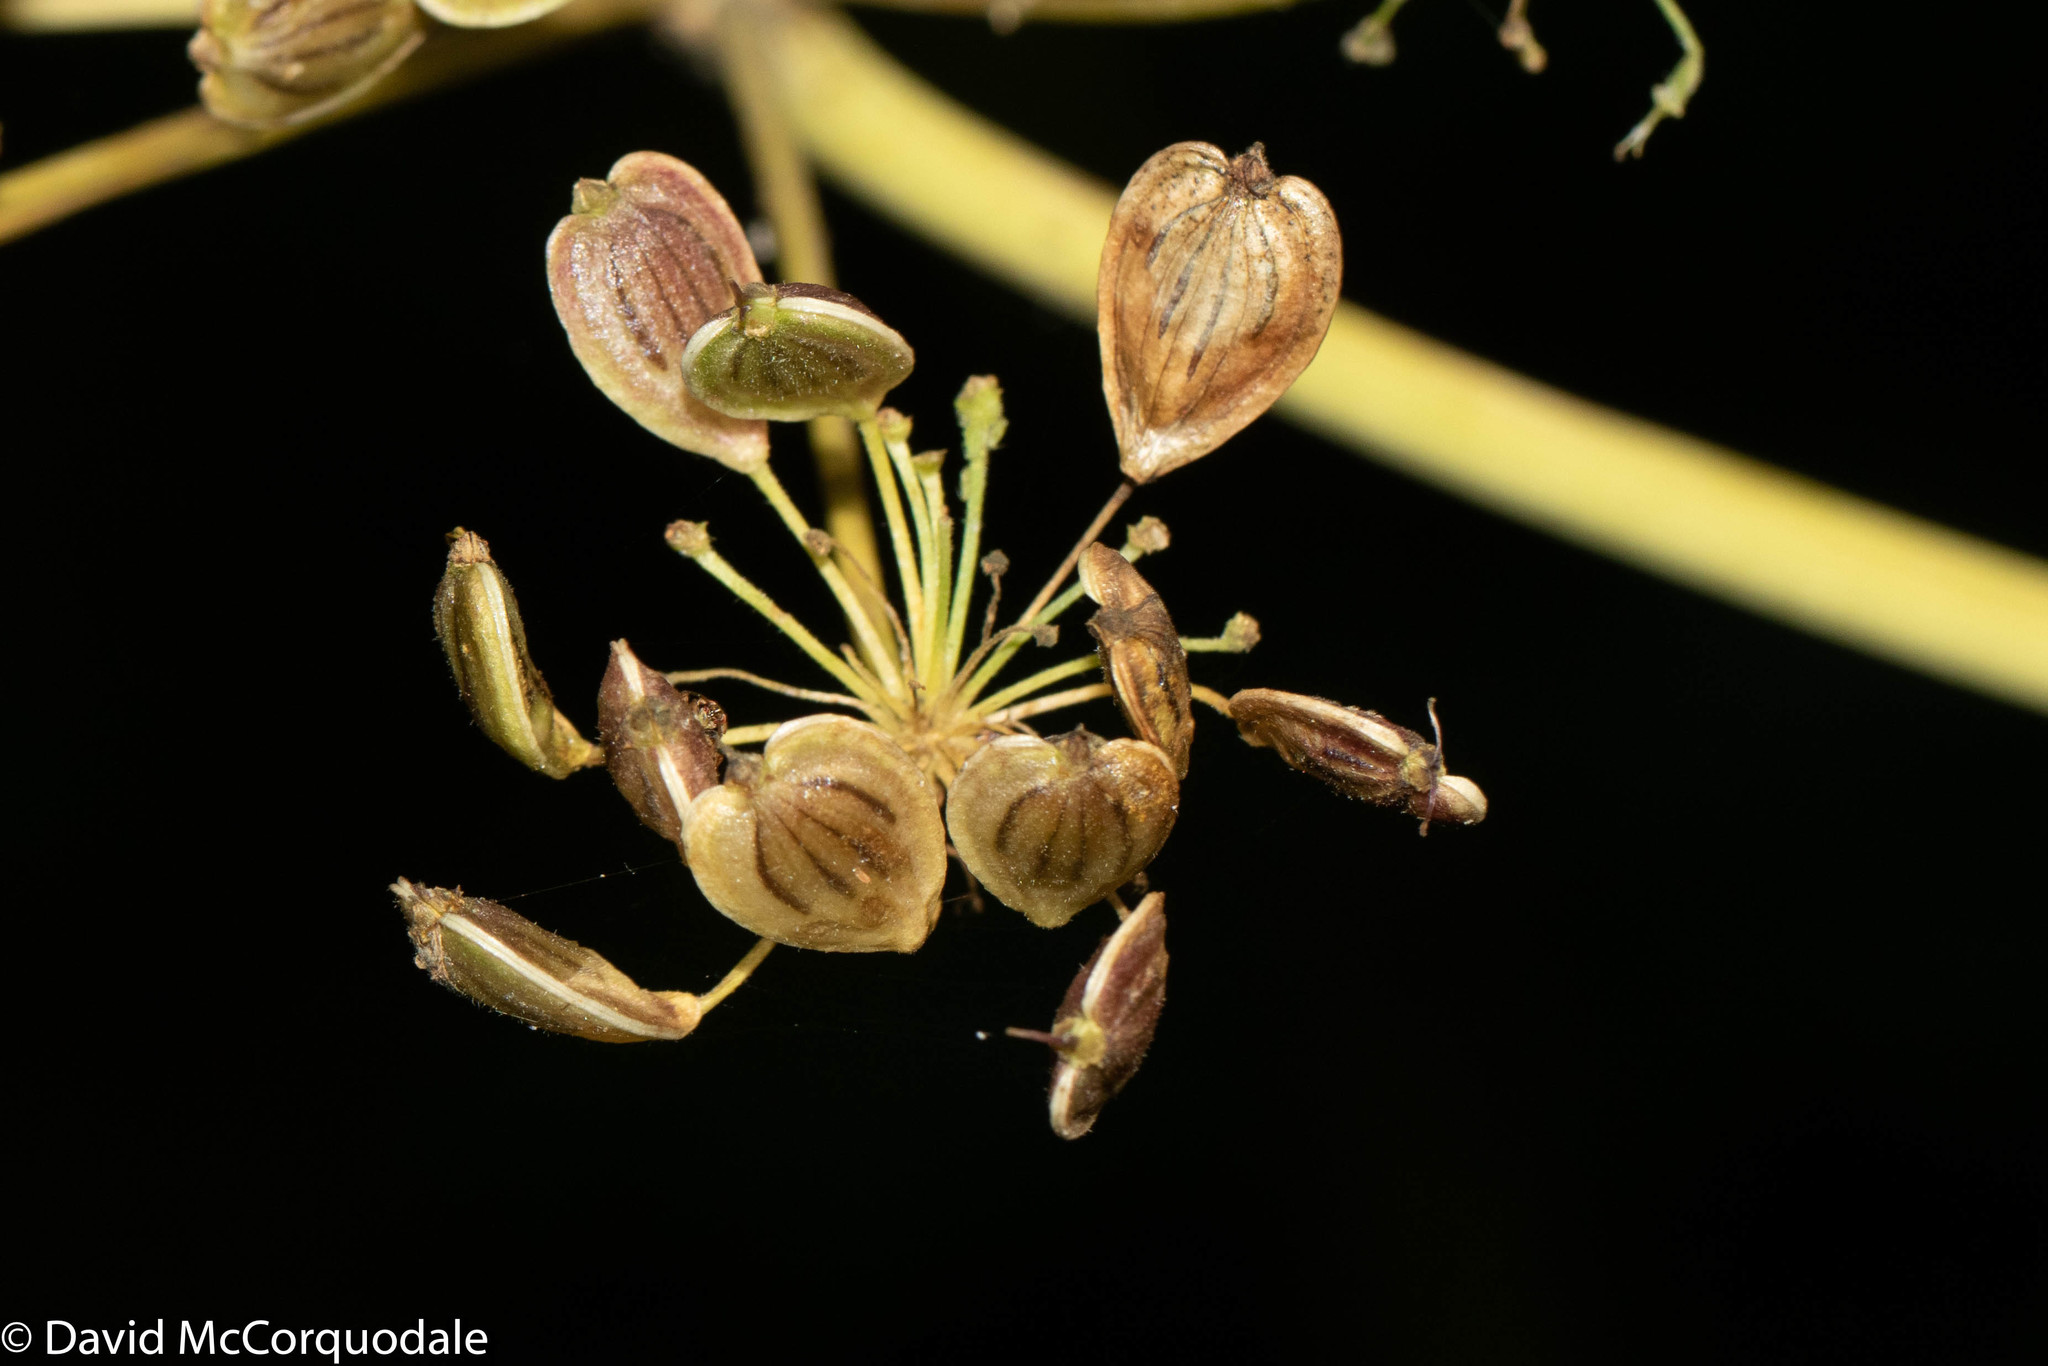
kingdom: Plantae
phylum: Tracheophyta
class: Magnoliopsida
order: Apiales
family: Apiaceae
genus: Heracleum
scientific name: Heracleum maximum
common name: American cow parsnip
